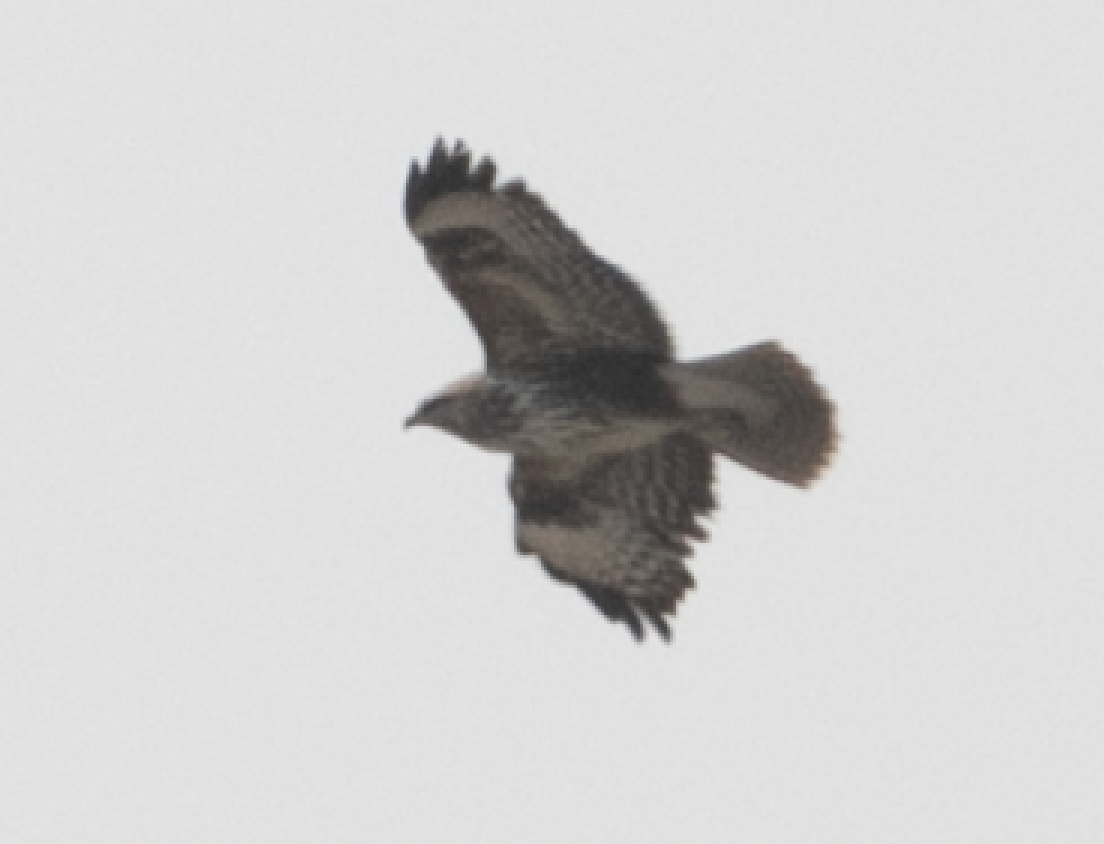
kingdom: Animalia
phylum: Chordata
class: Aves
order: Accipitriformes
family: Accipitridae
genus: Buteo
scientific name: Buteo buteo
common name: Common buzzard
